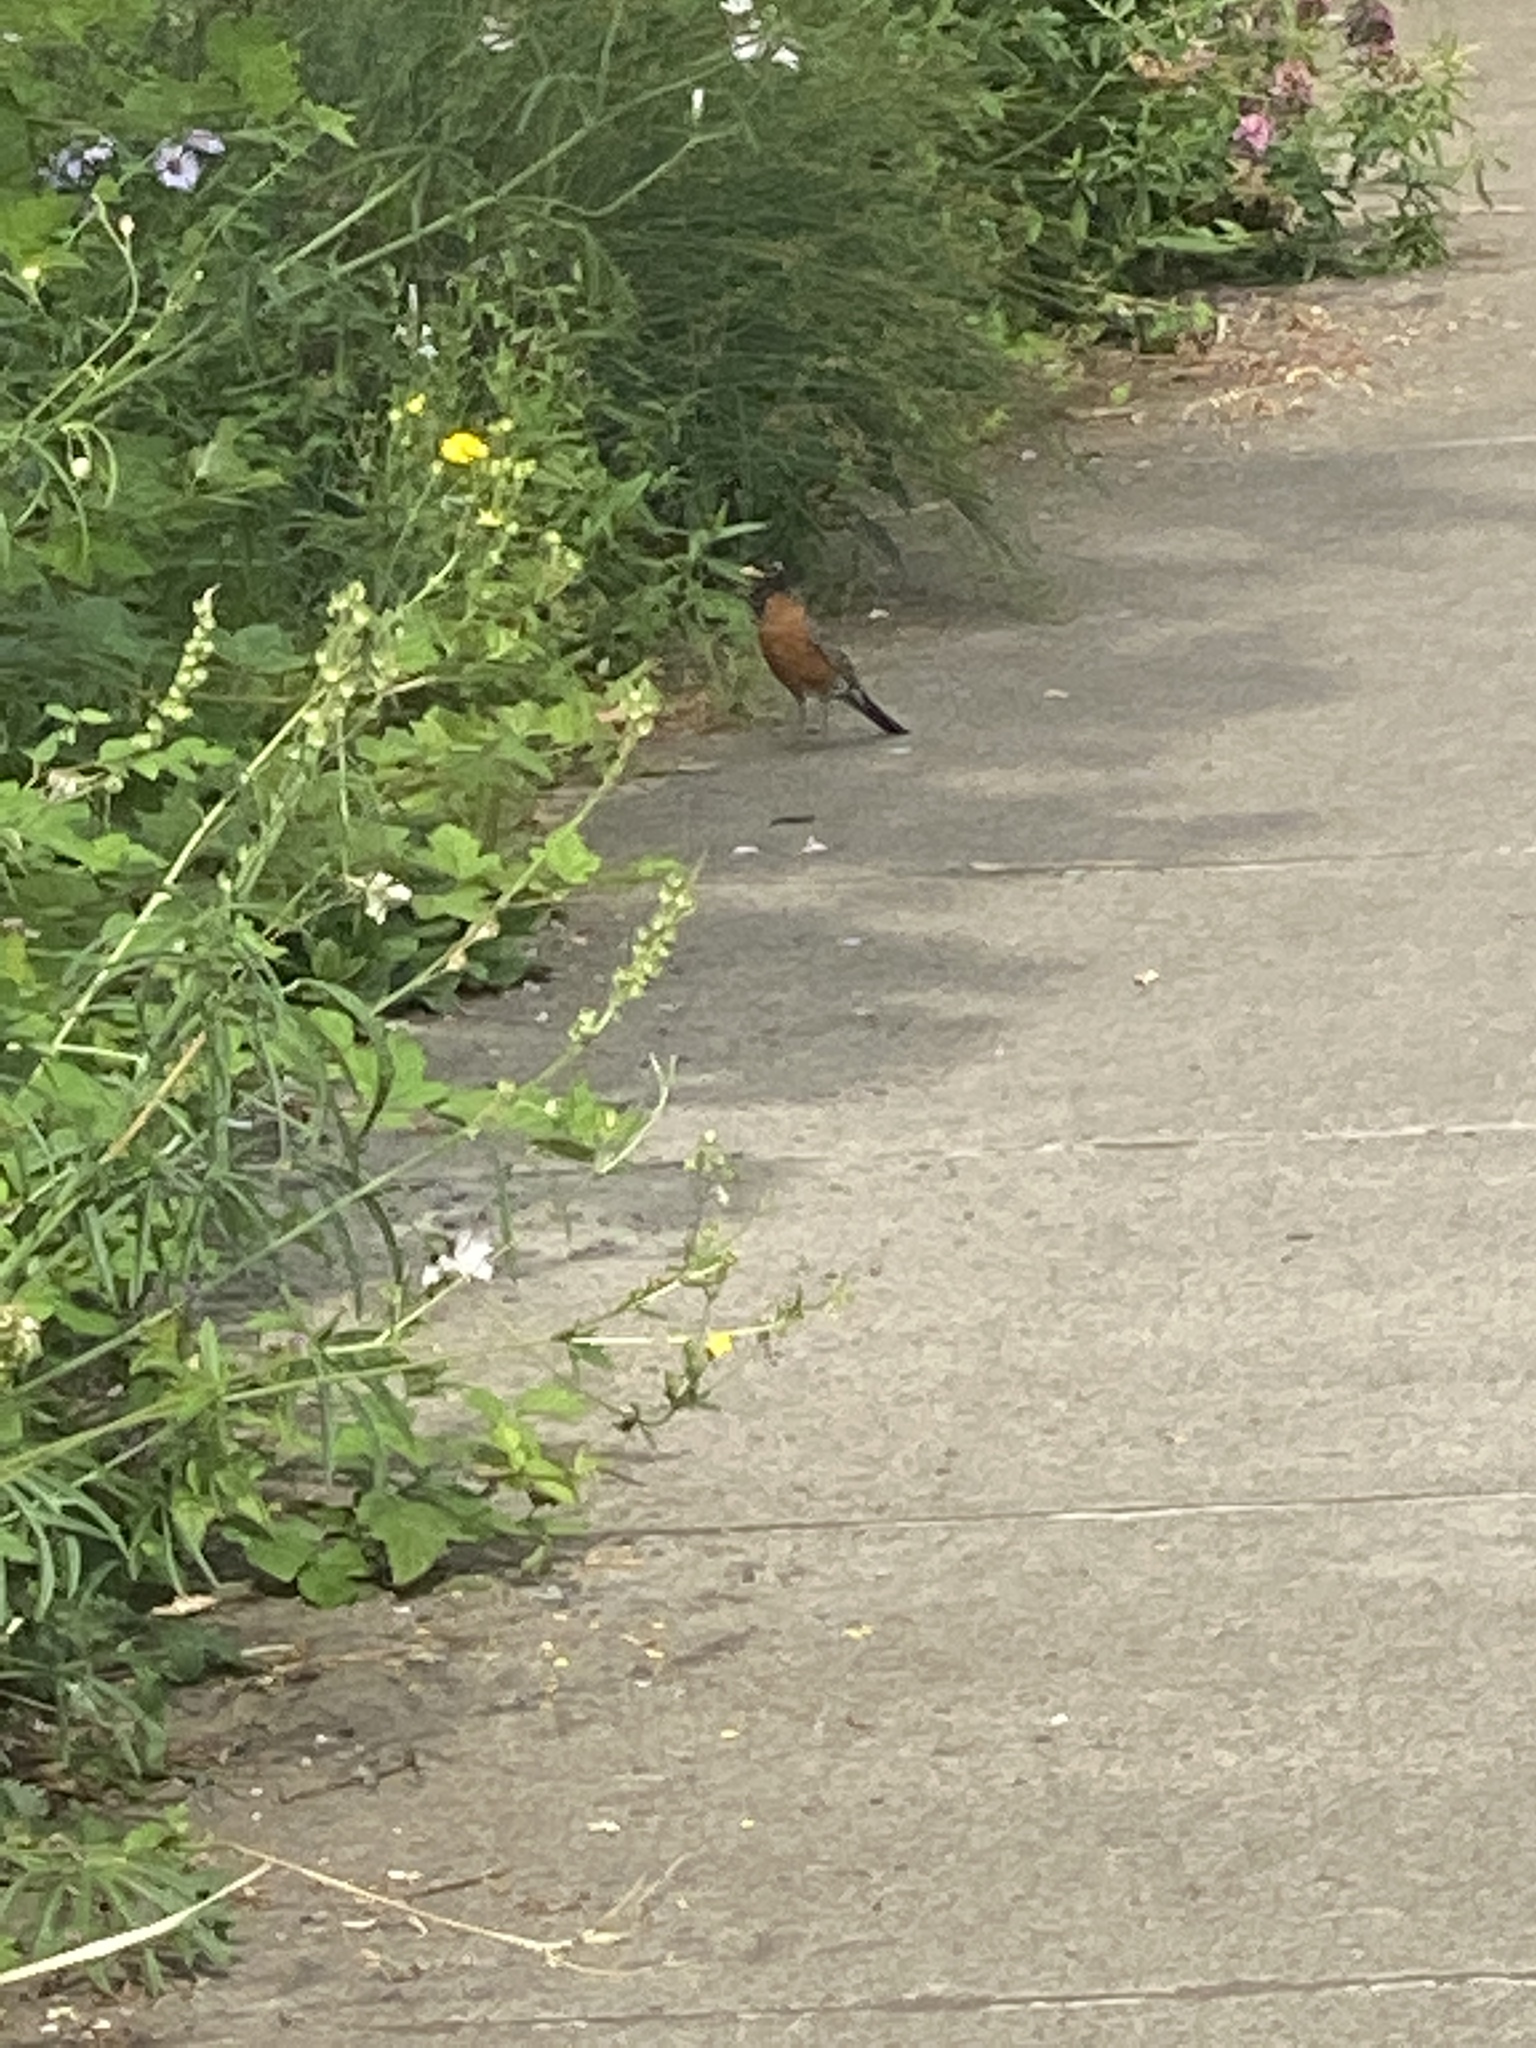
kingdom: Animalia
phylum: Chordata
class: Aves
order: Passeriformes
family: Turdidae
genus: Turdus
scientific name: Turdus migratorius
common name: American robin
